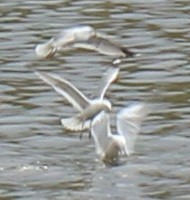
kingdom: Animalia
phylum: Chordata
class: Aves
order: Charadriiformes
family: Laridae
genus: Chroicocephalus
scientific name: Chroicocephalus ridibundus
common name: Black-headed gull
